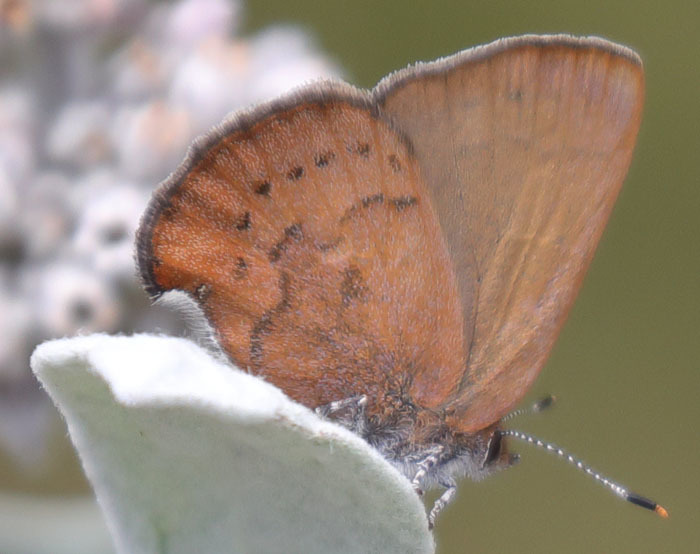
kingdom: Animalia
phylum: Arthropoda
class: Insecta
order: Lepidoptera
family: Lycaenidae
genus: Incisalia
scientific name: Incisalia irioides
